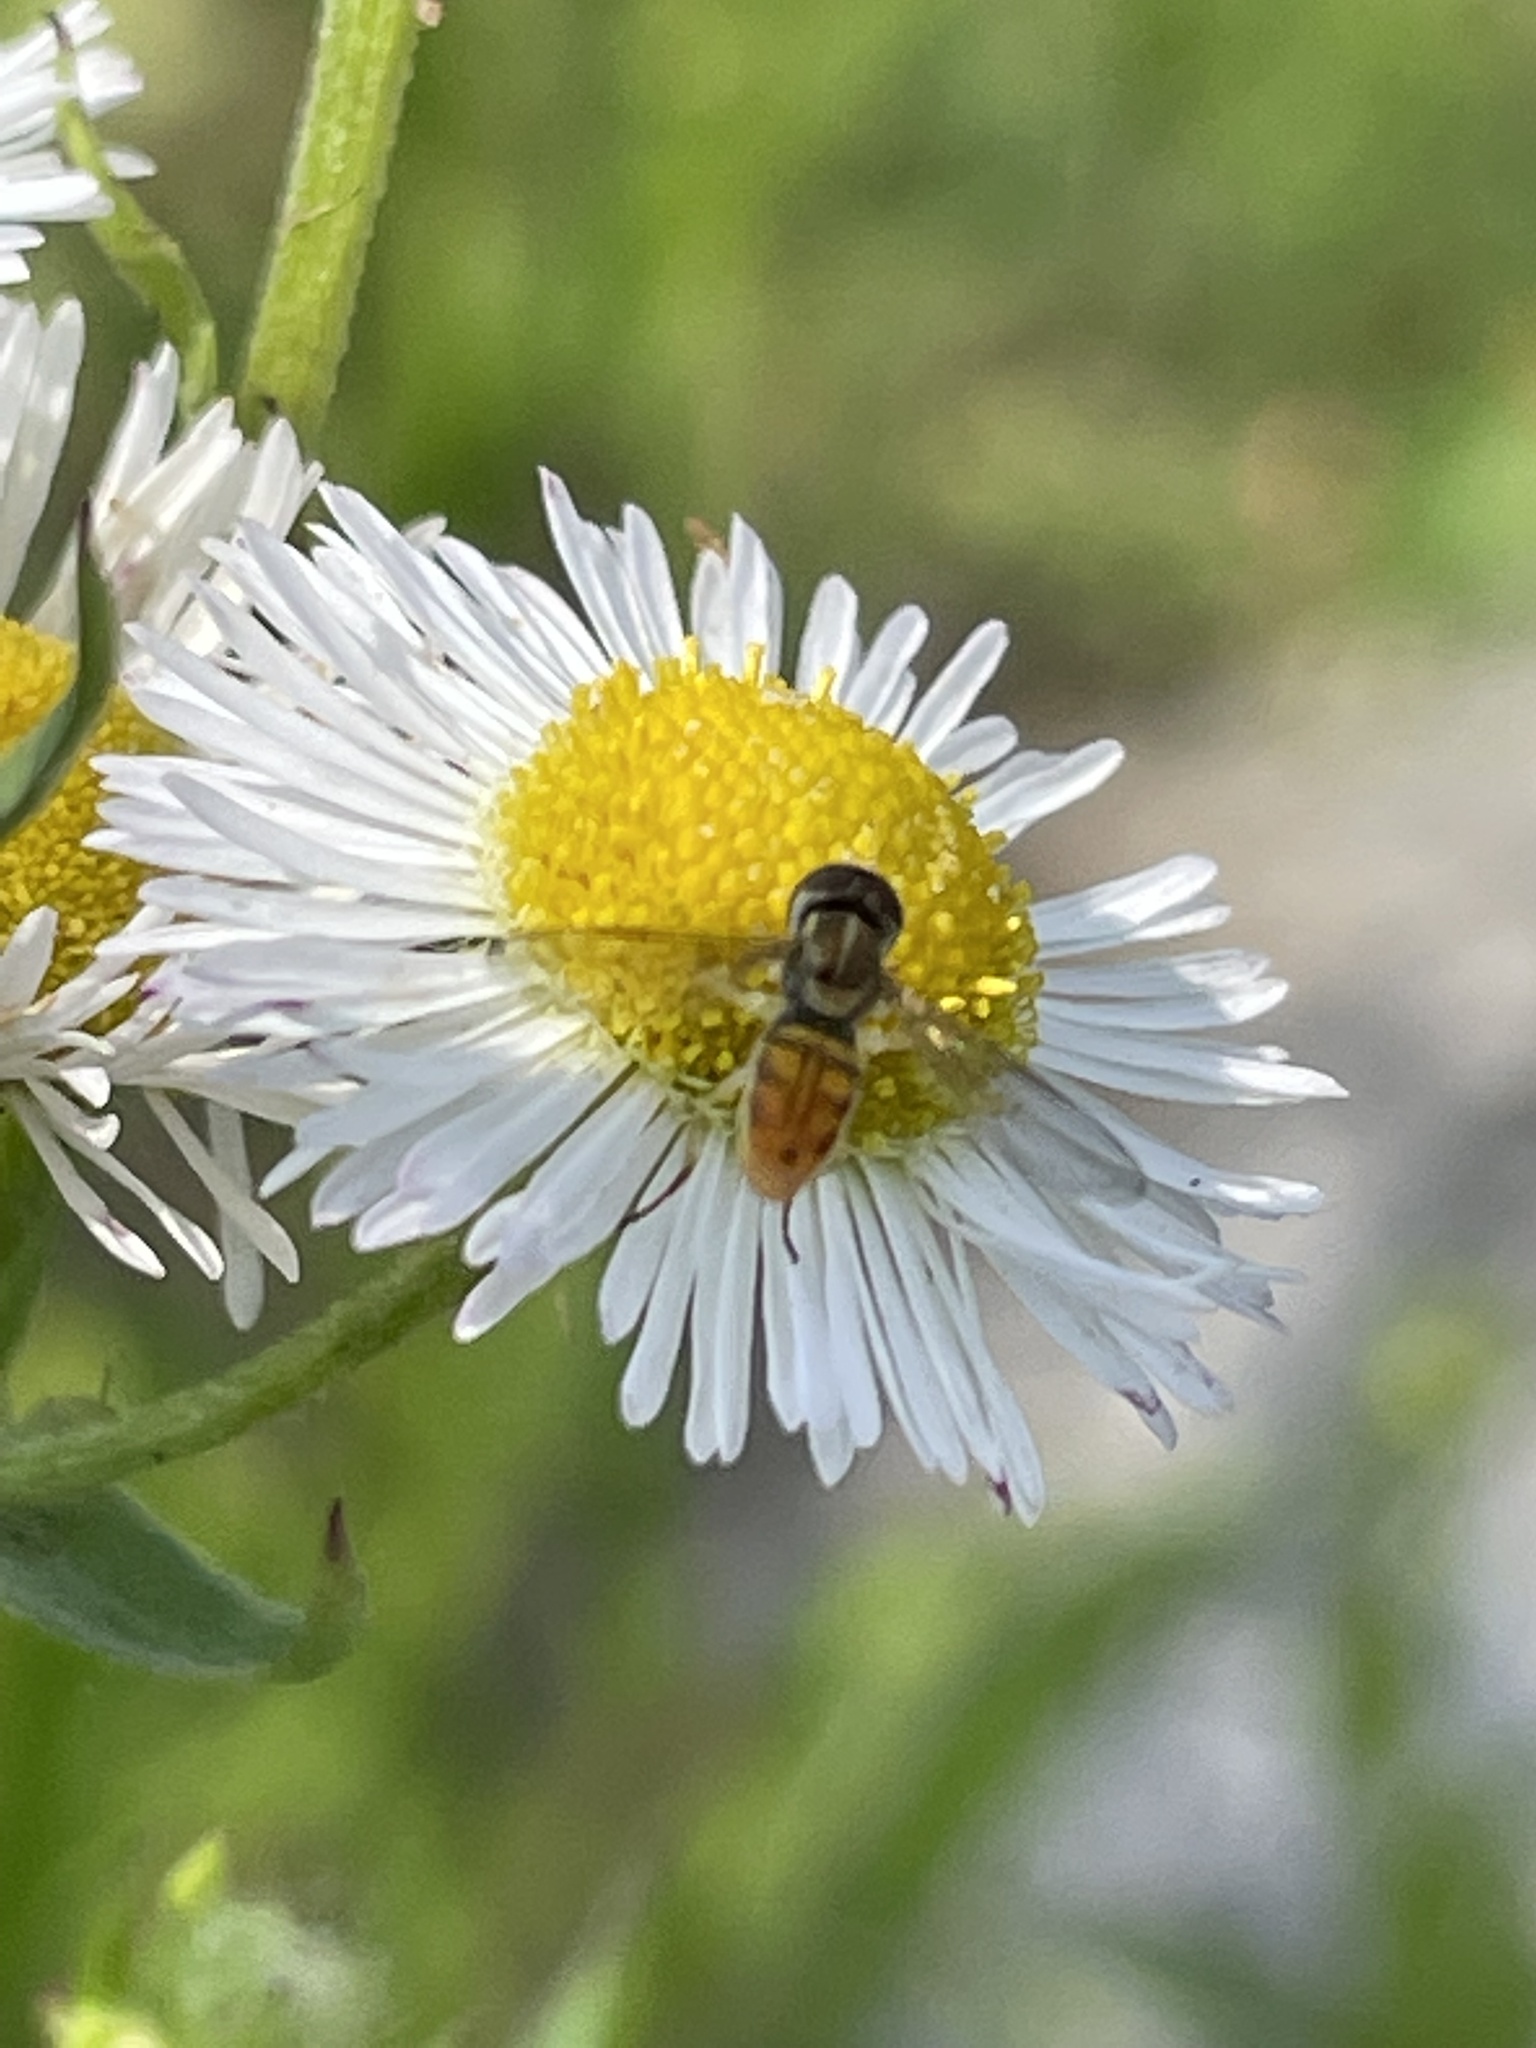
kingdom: Animalia
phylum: Arthropoda
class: Insecta
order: Diptera
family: Syrphidae
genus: Toxomerus
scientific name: Toxomerus marginatus
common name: Syrphid fly
